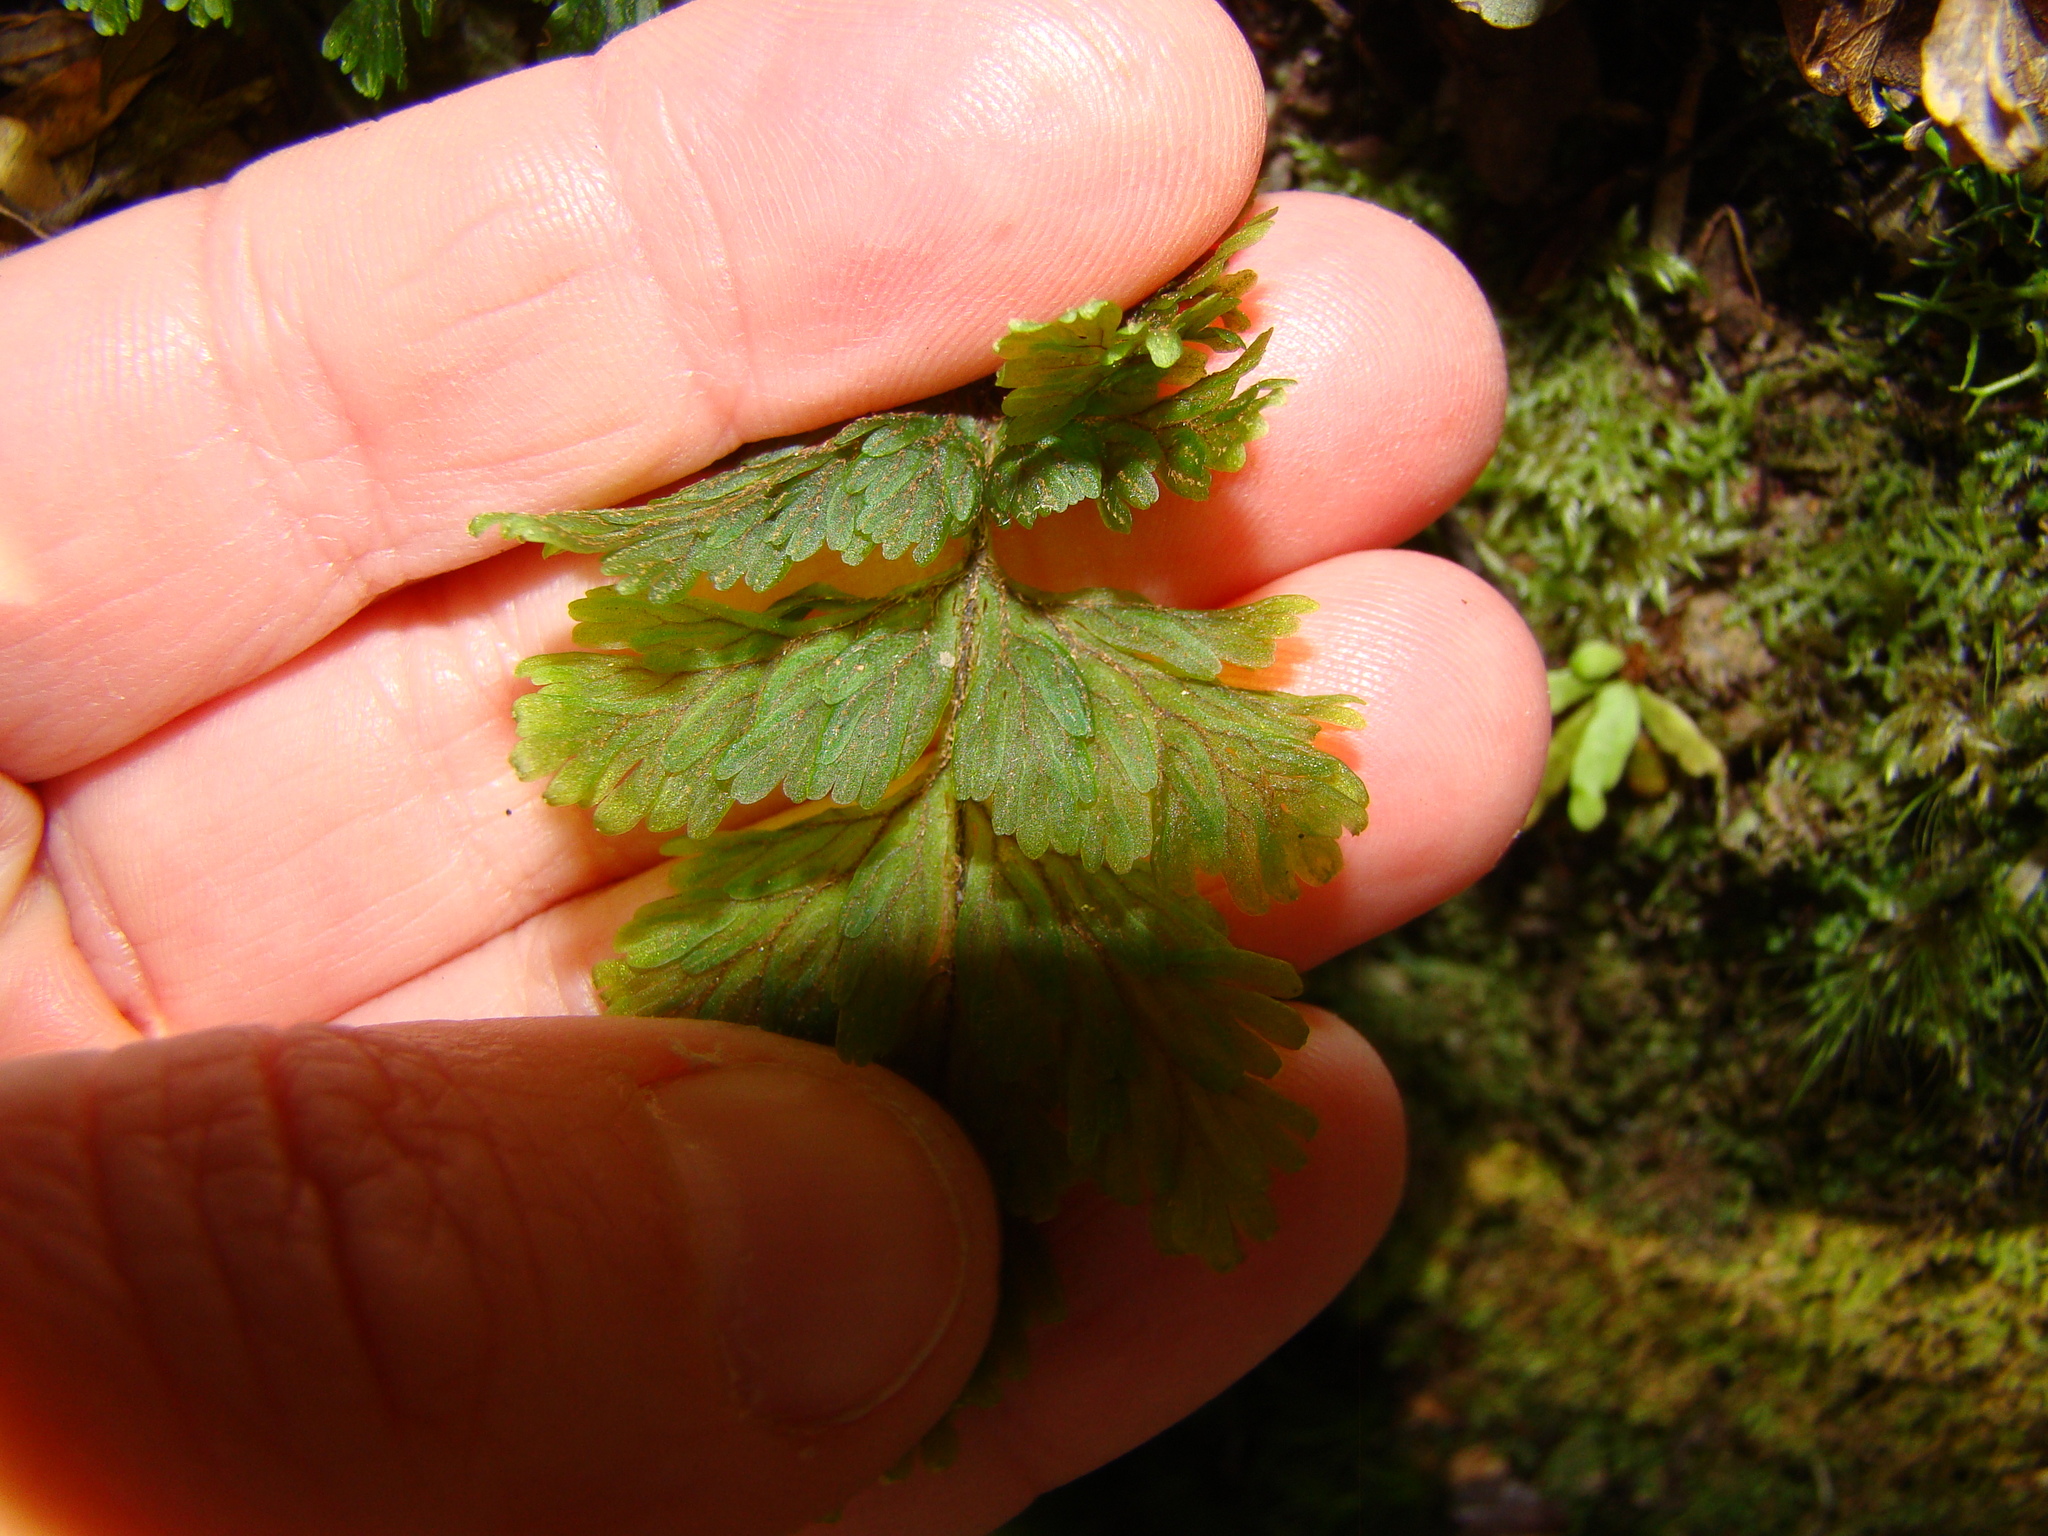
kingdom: Plantae
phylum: Tracheophyta
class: Polypodiopsida
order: Hymenophyllales
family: Hymenophyllaceae
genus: Hymenophyllum
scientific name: Hymenophyllum scabrum
